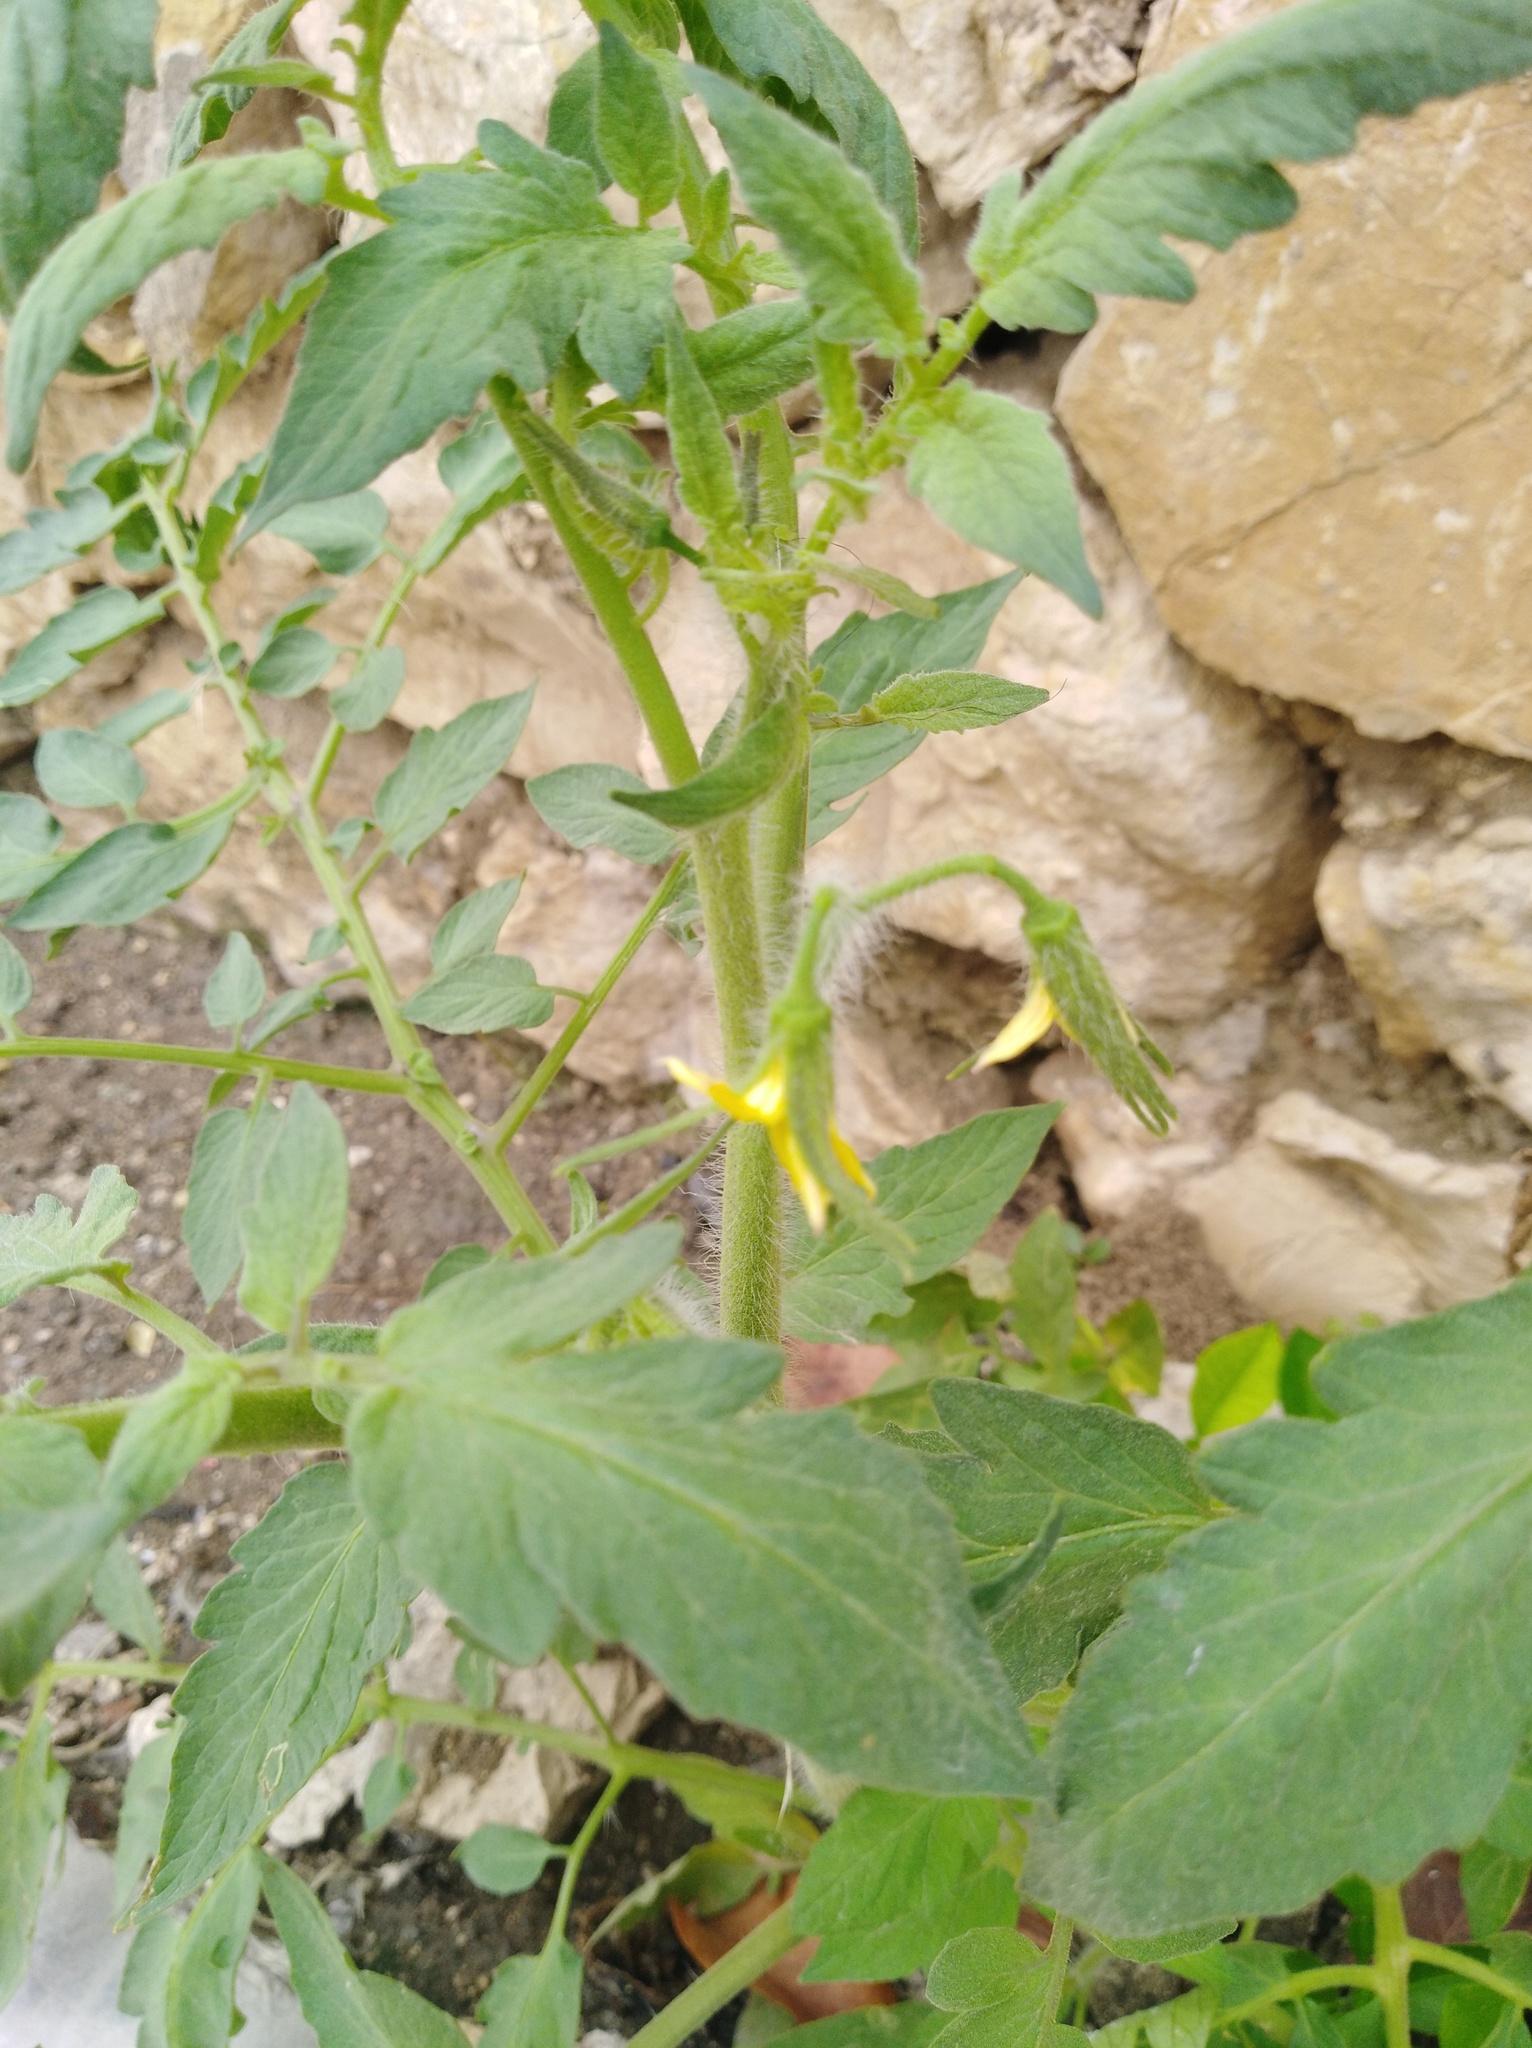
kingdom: Plantae
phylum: Tracheophyta
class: Magnoliopsida
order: Solanales
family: Solanaceae
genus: Solanum
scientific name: Solanum lycopersicum
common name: Garden tomato
